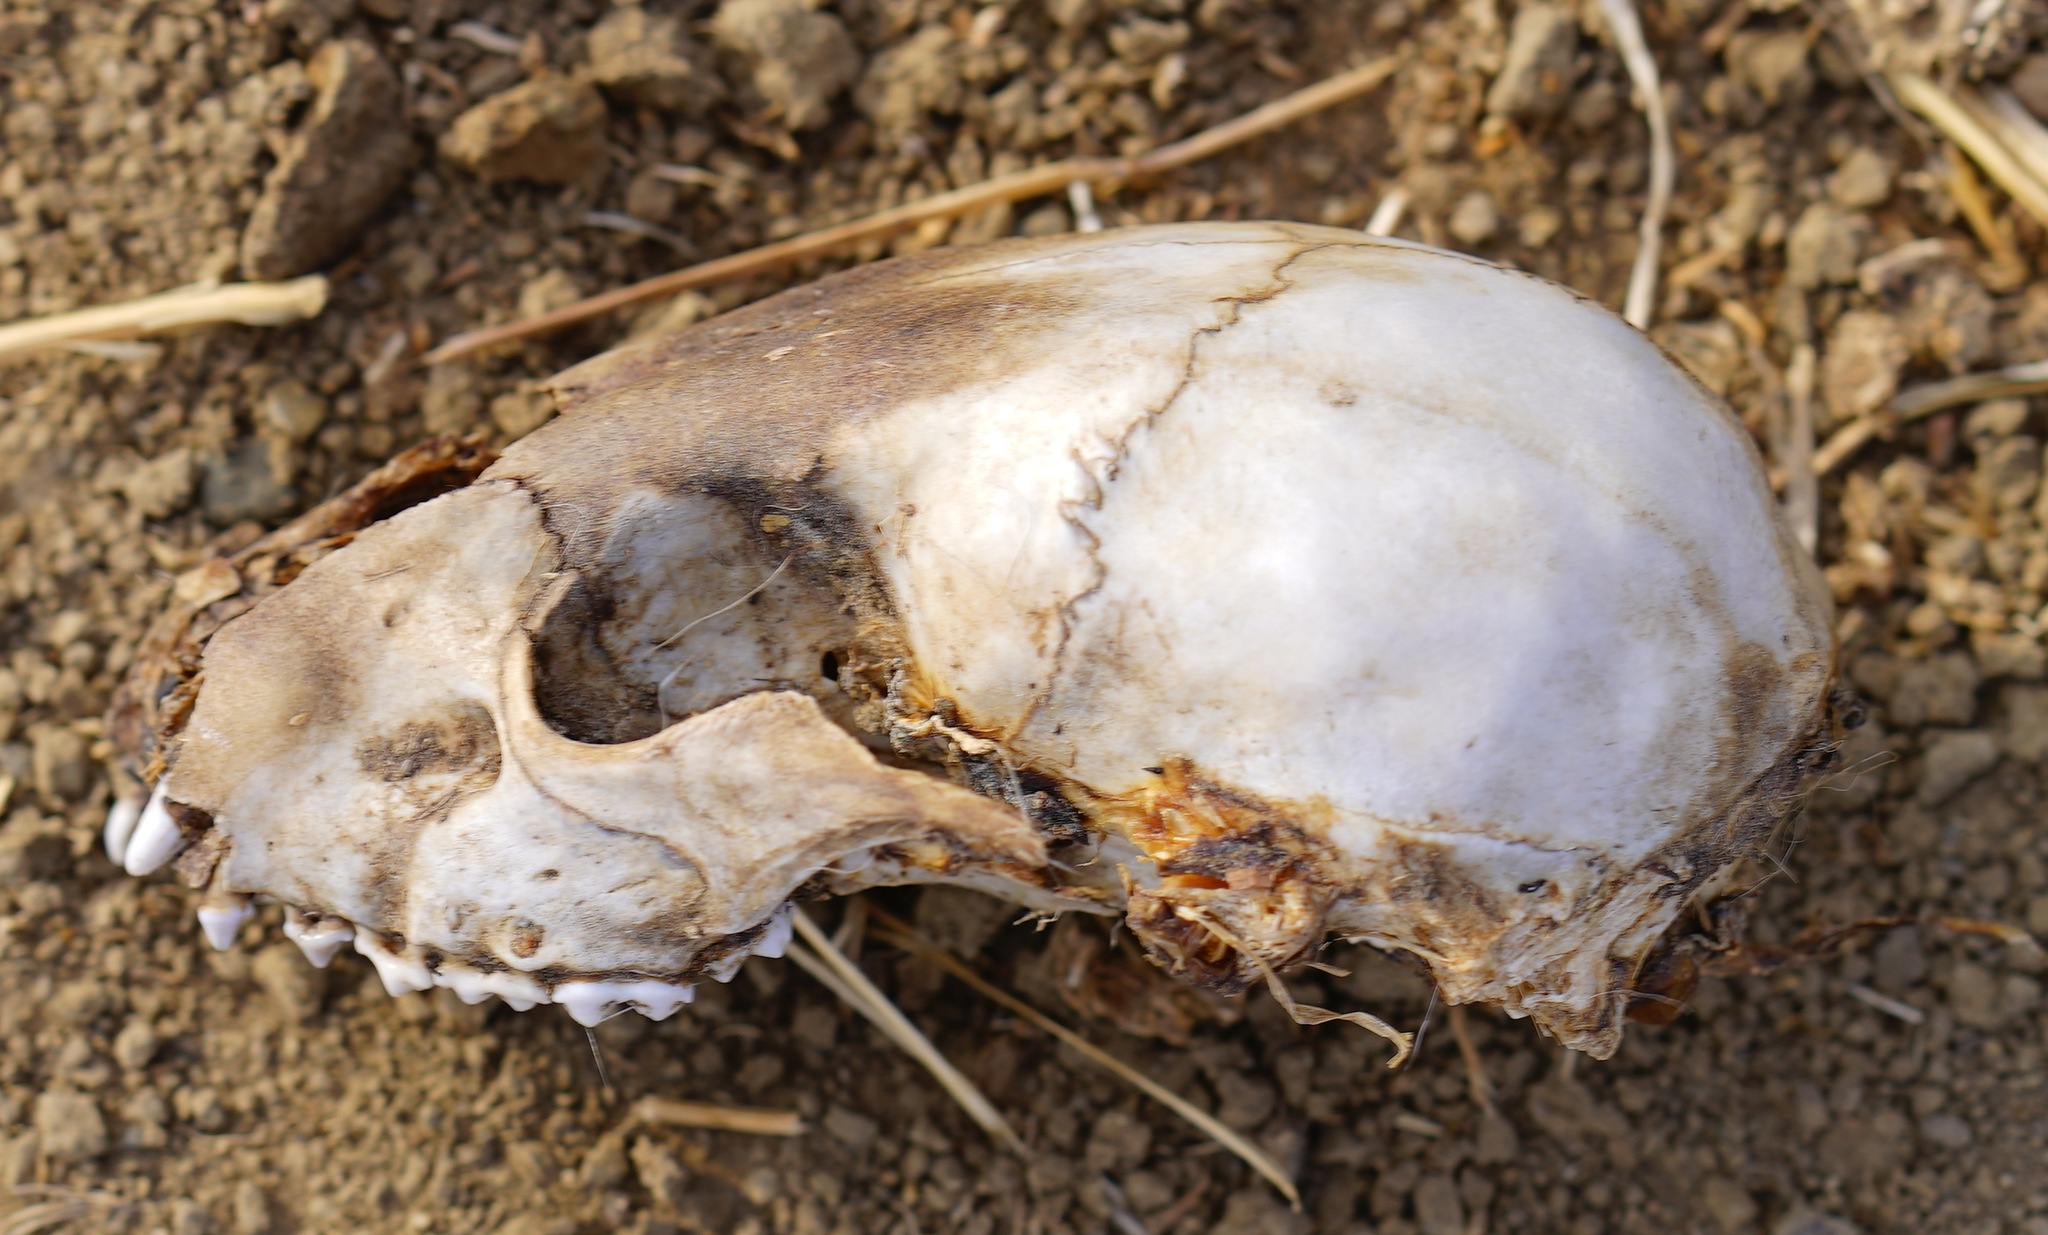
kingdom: Animalia
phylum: Chordata
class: Mammalia
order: Carnivora
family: Procyonidae
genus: Procyon
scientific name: Procyon lotor
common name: Raccoon
